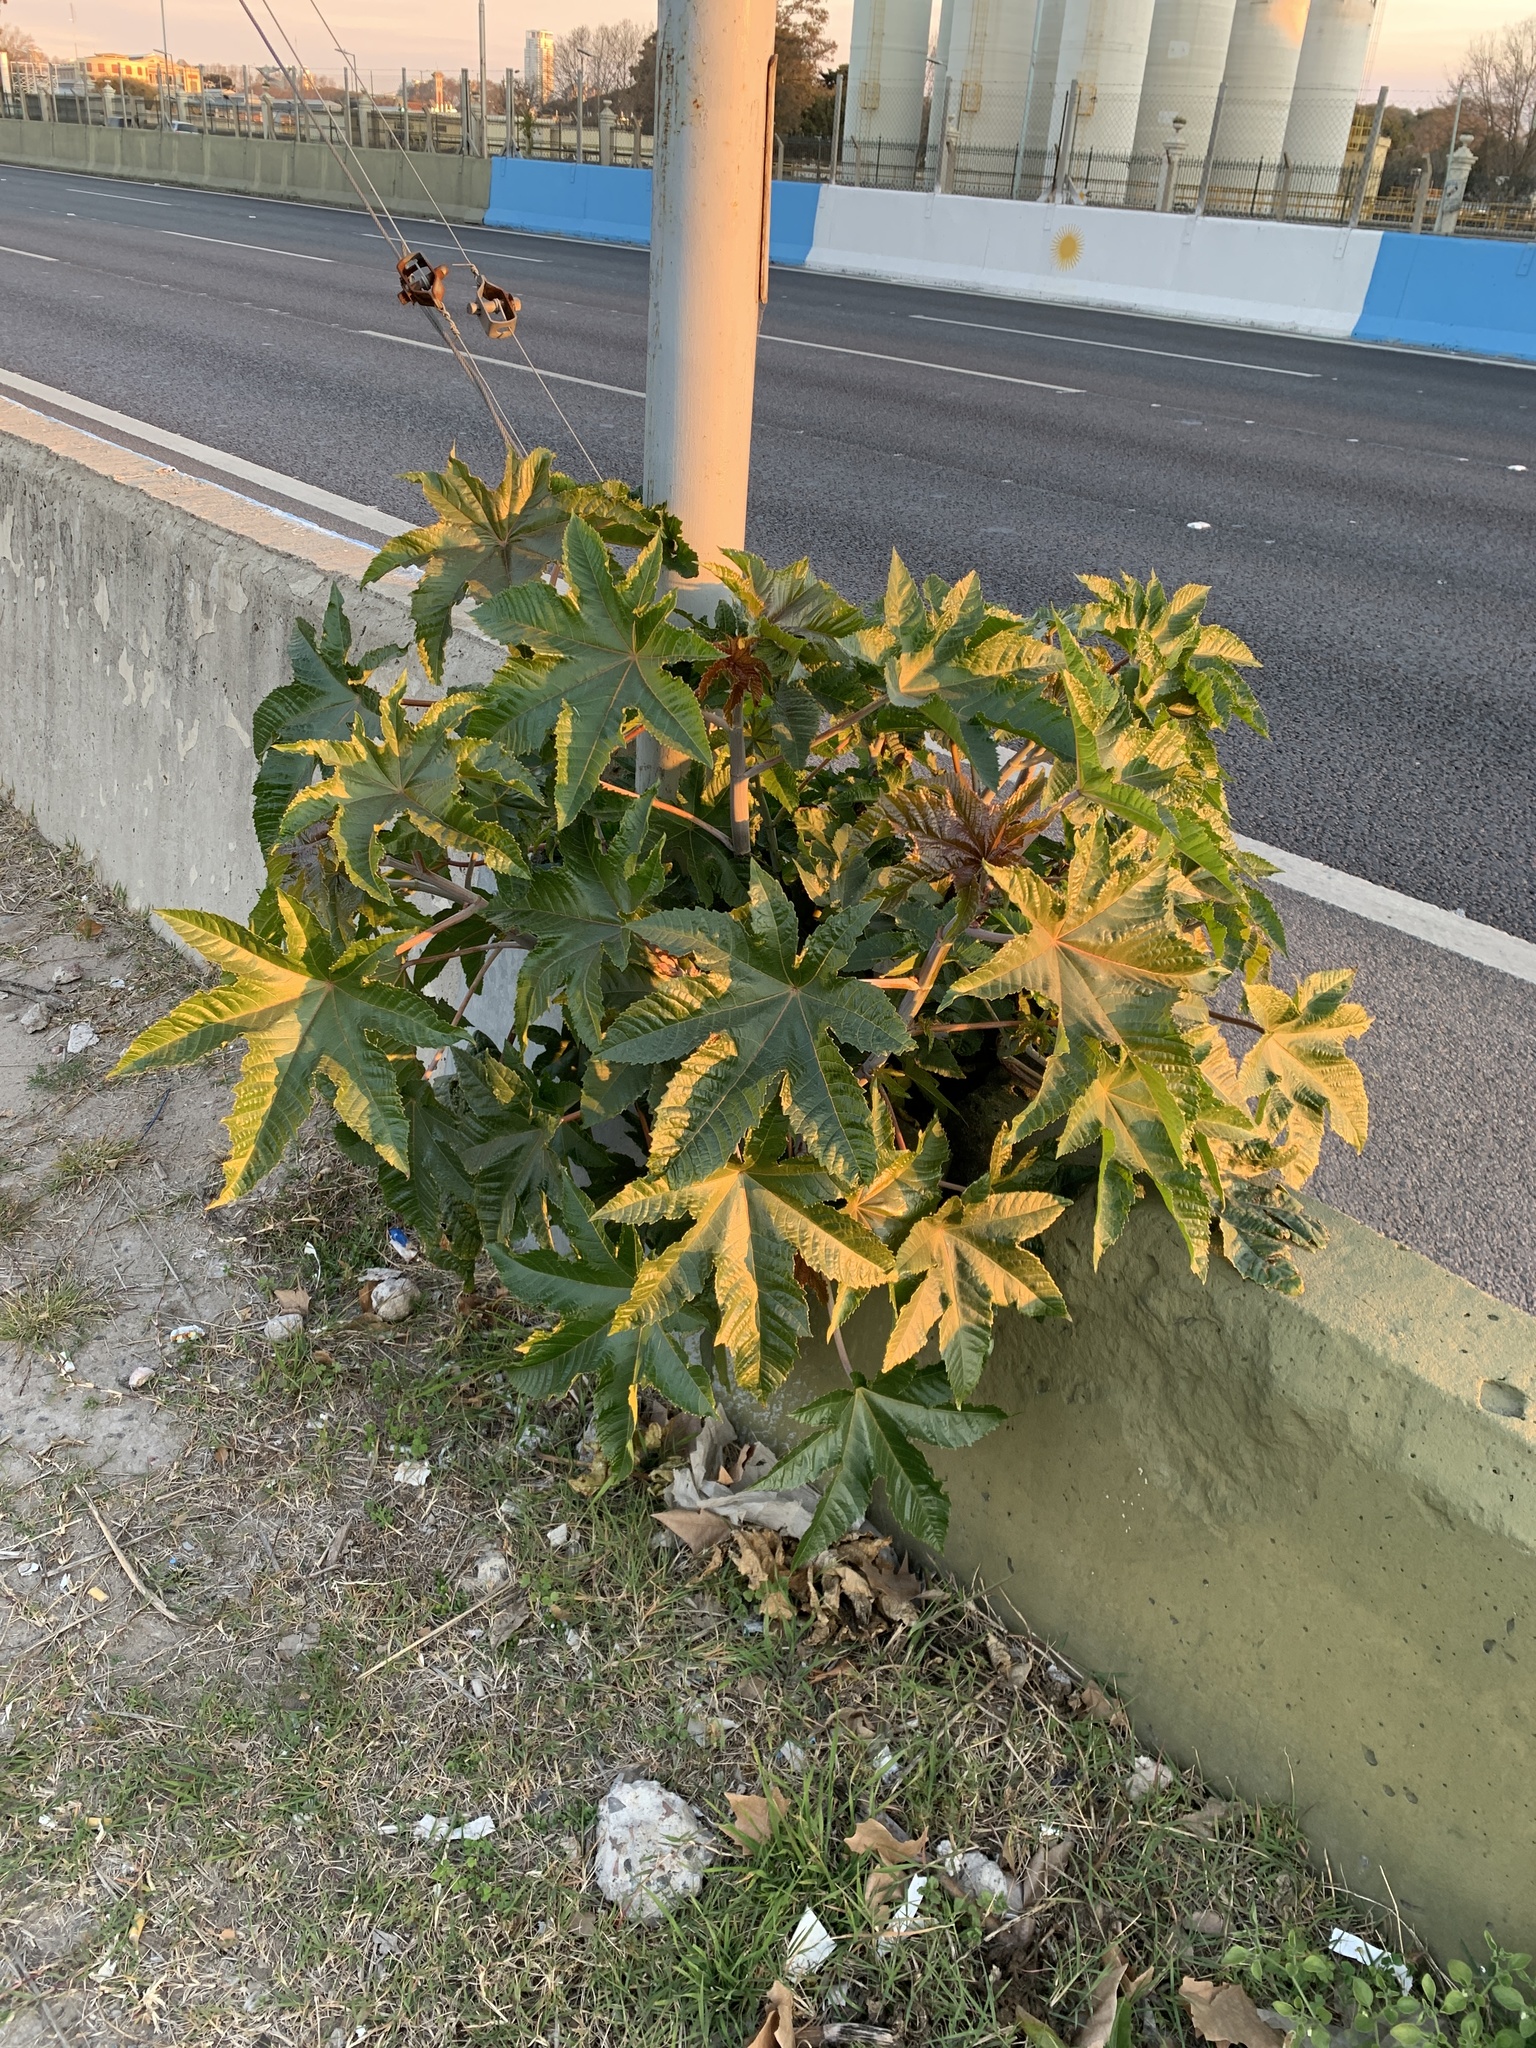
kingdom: Plantae
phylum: Tracheophyta
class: Magnoliopsida
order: Malpighiales
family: Euphorbiaceae
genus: Ricinus
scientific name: Ricinus communis
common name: Castor-oil-plant
